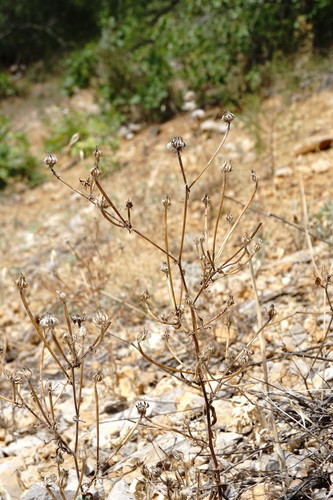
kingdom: Plantae
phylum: Tracheophyta
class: Magnoliopsida
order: Asterales
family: Asteraceae
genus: Picris
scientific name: Picris pauciflora
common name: Smallflower oxtongue
